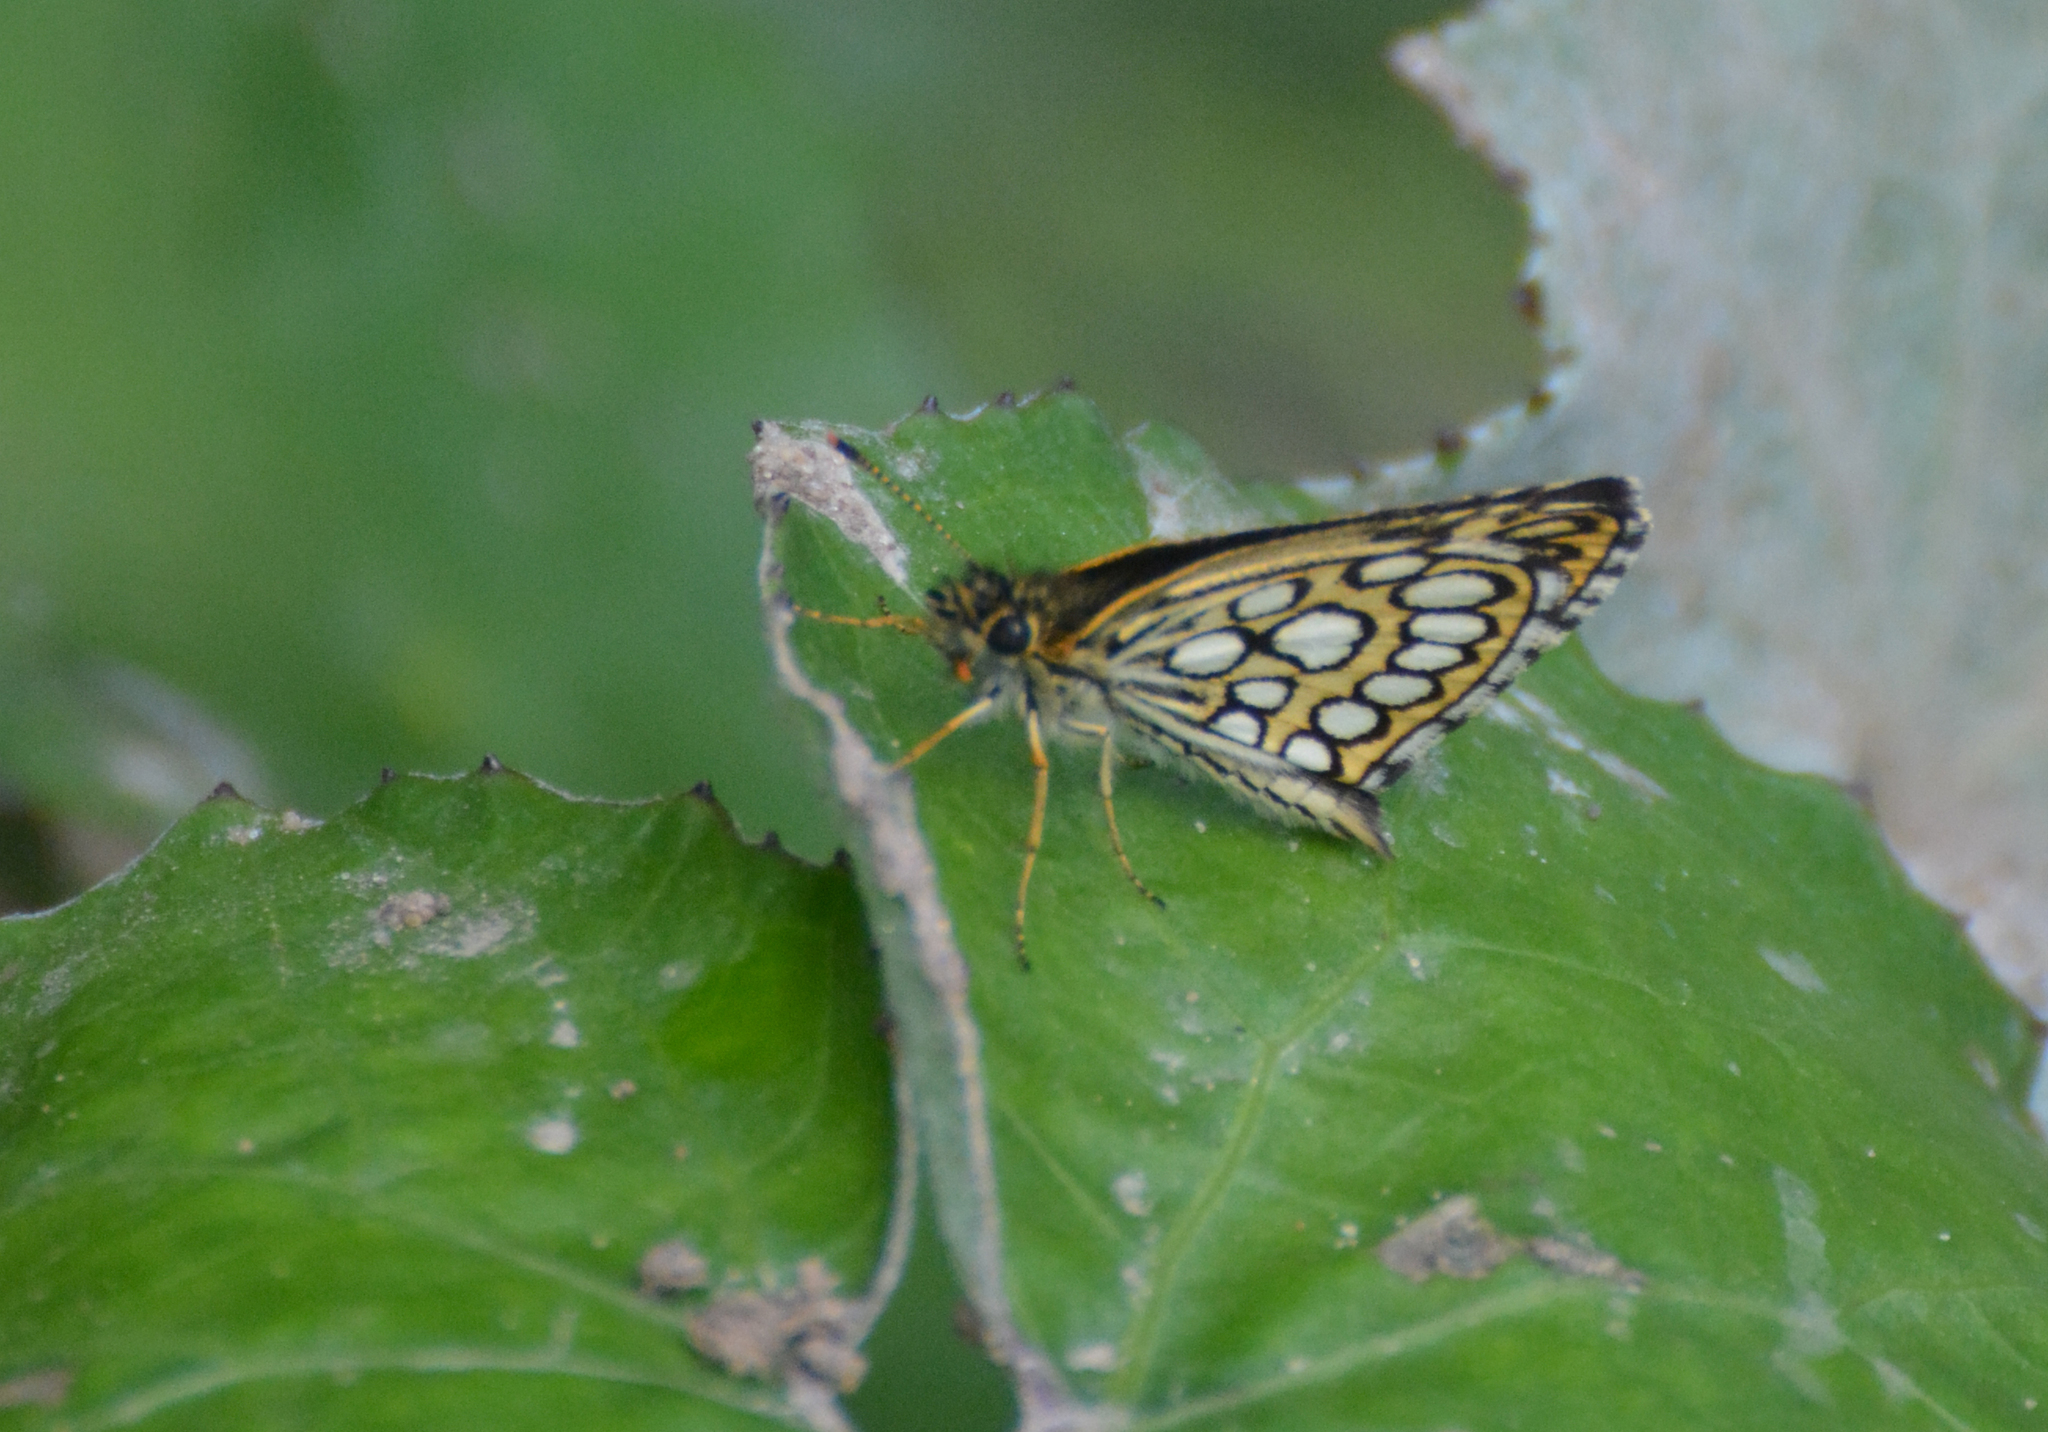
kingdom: Animalia
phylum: Arthropoda
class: Insecta
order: Lepidoptera
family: Hesperiidae
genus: Heteropterus
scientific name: Heteropterus morpheus
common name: Large chequered skipper
